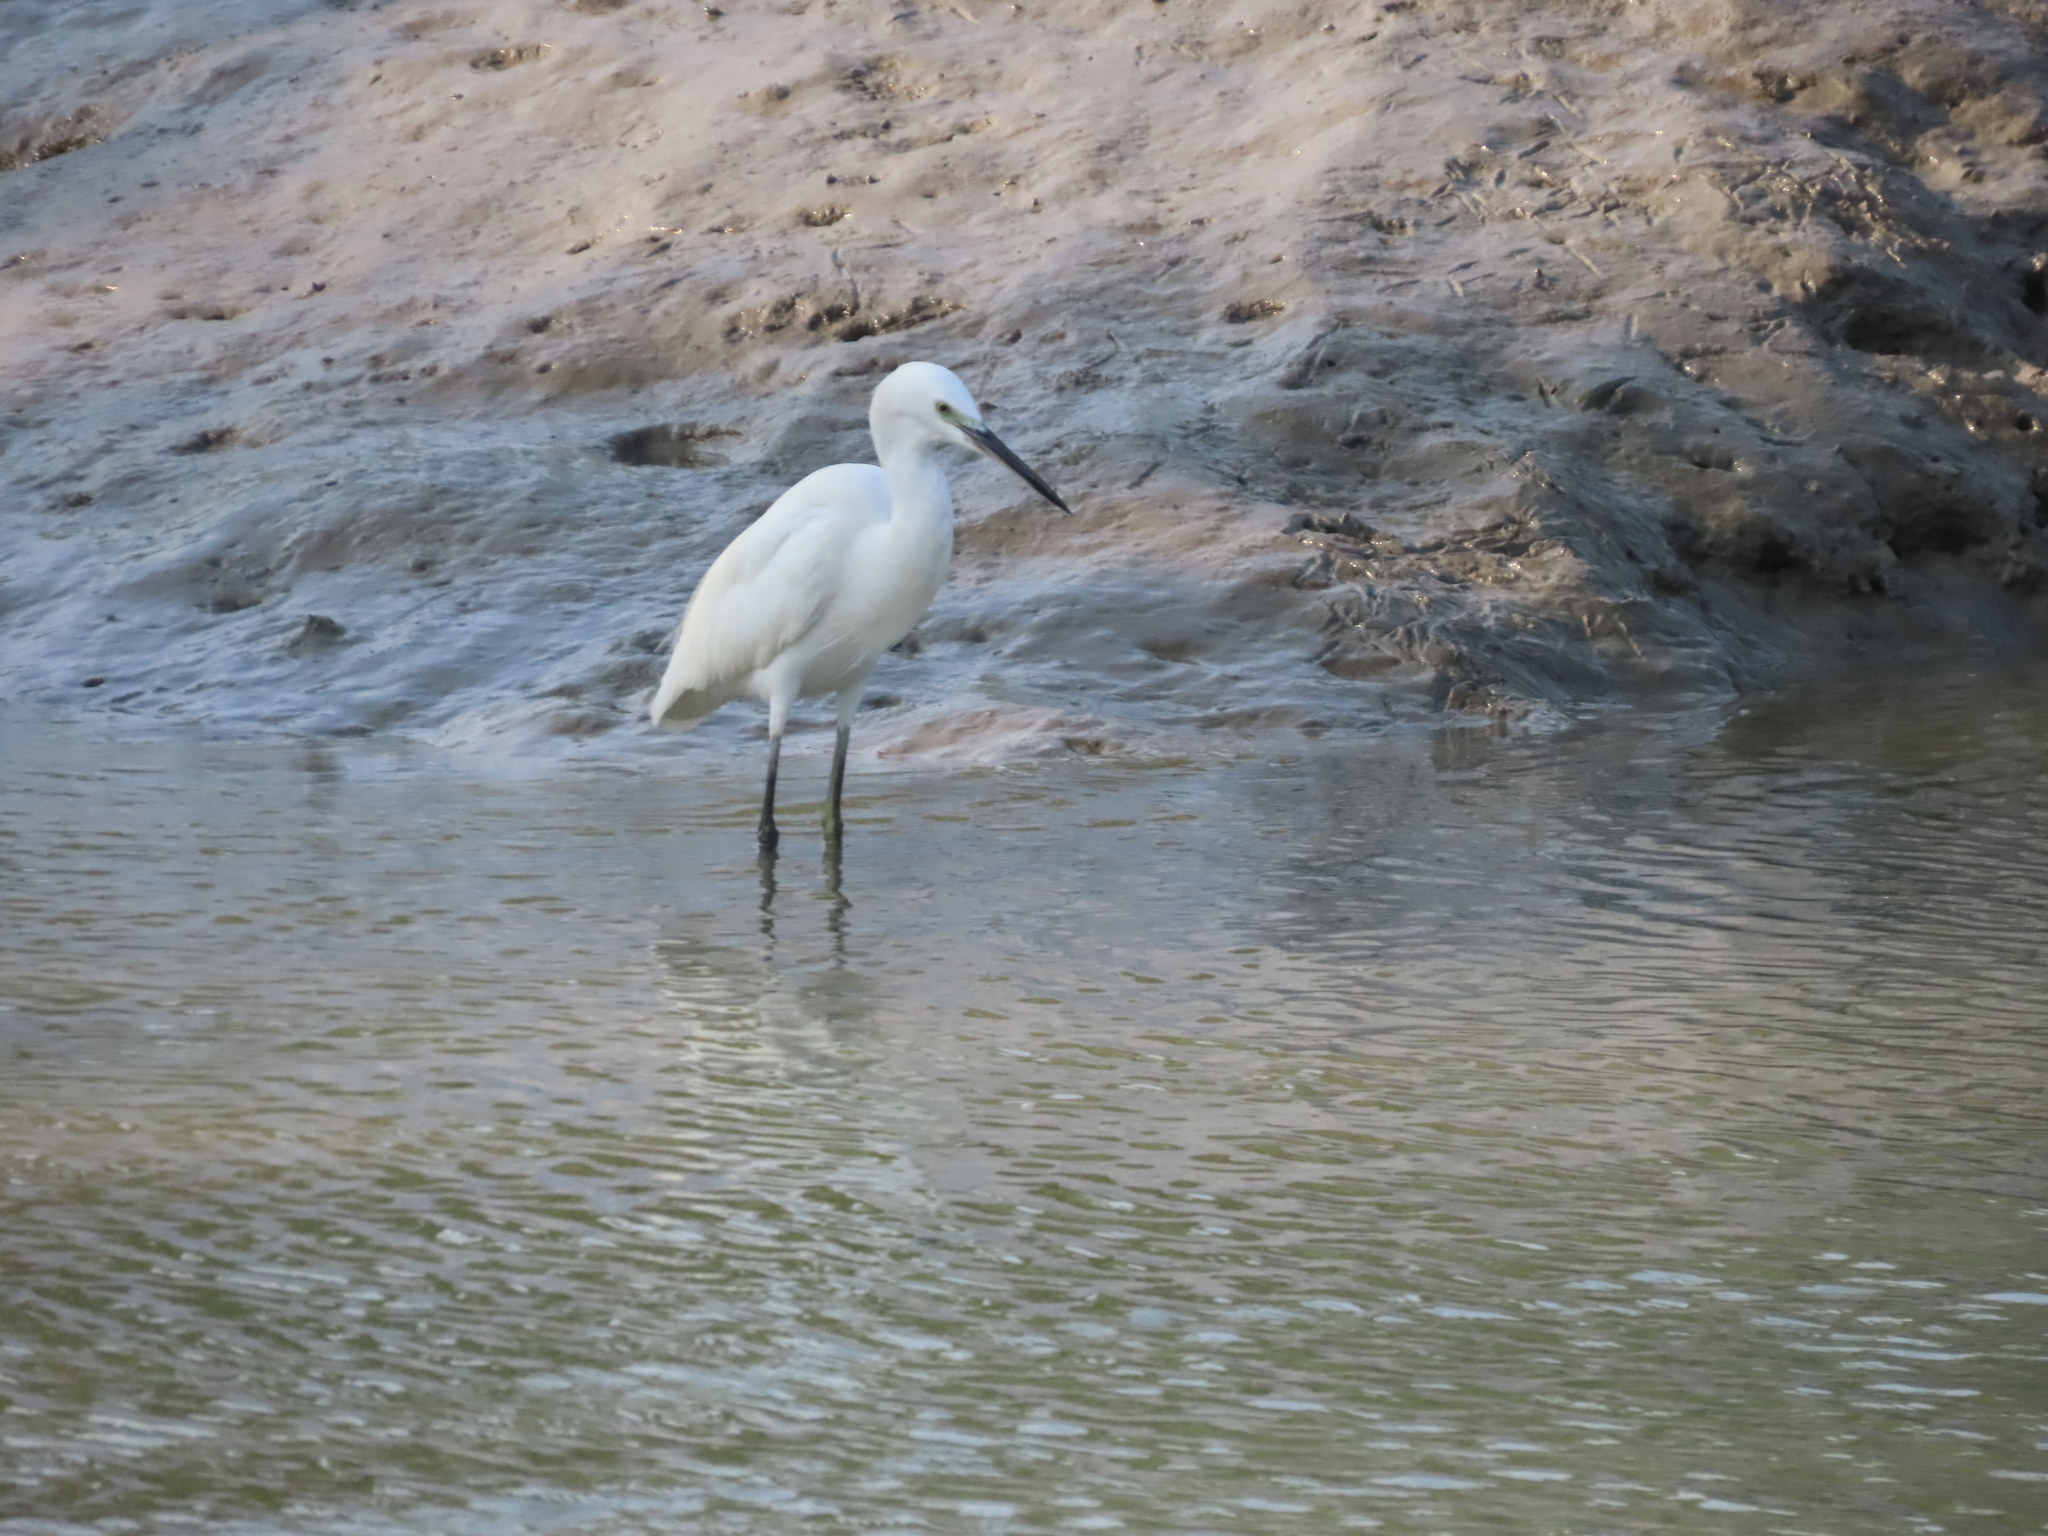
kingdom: Animalia
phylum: Chordata
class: Aves
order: Pelecaniformes
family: Ardeidae
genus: Egretta
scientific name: Egretta garzetta
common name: Little egret
